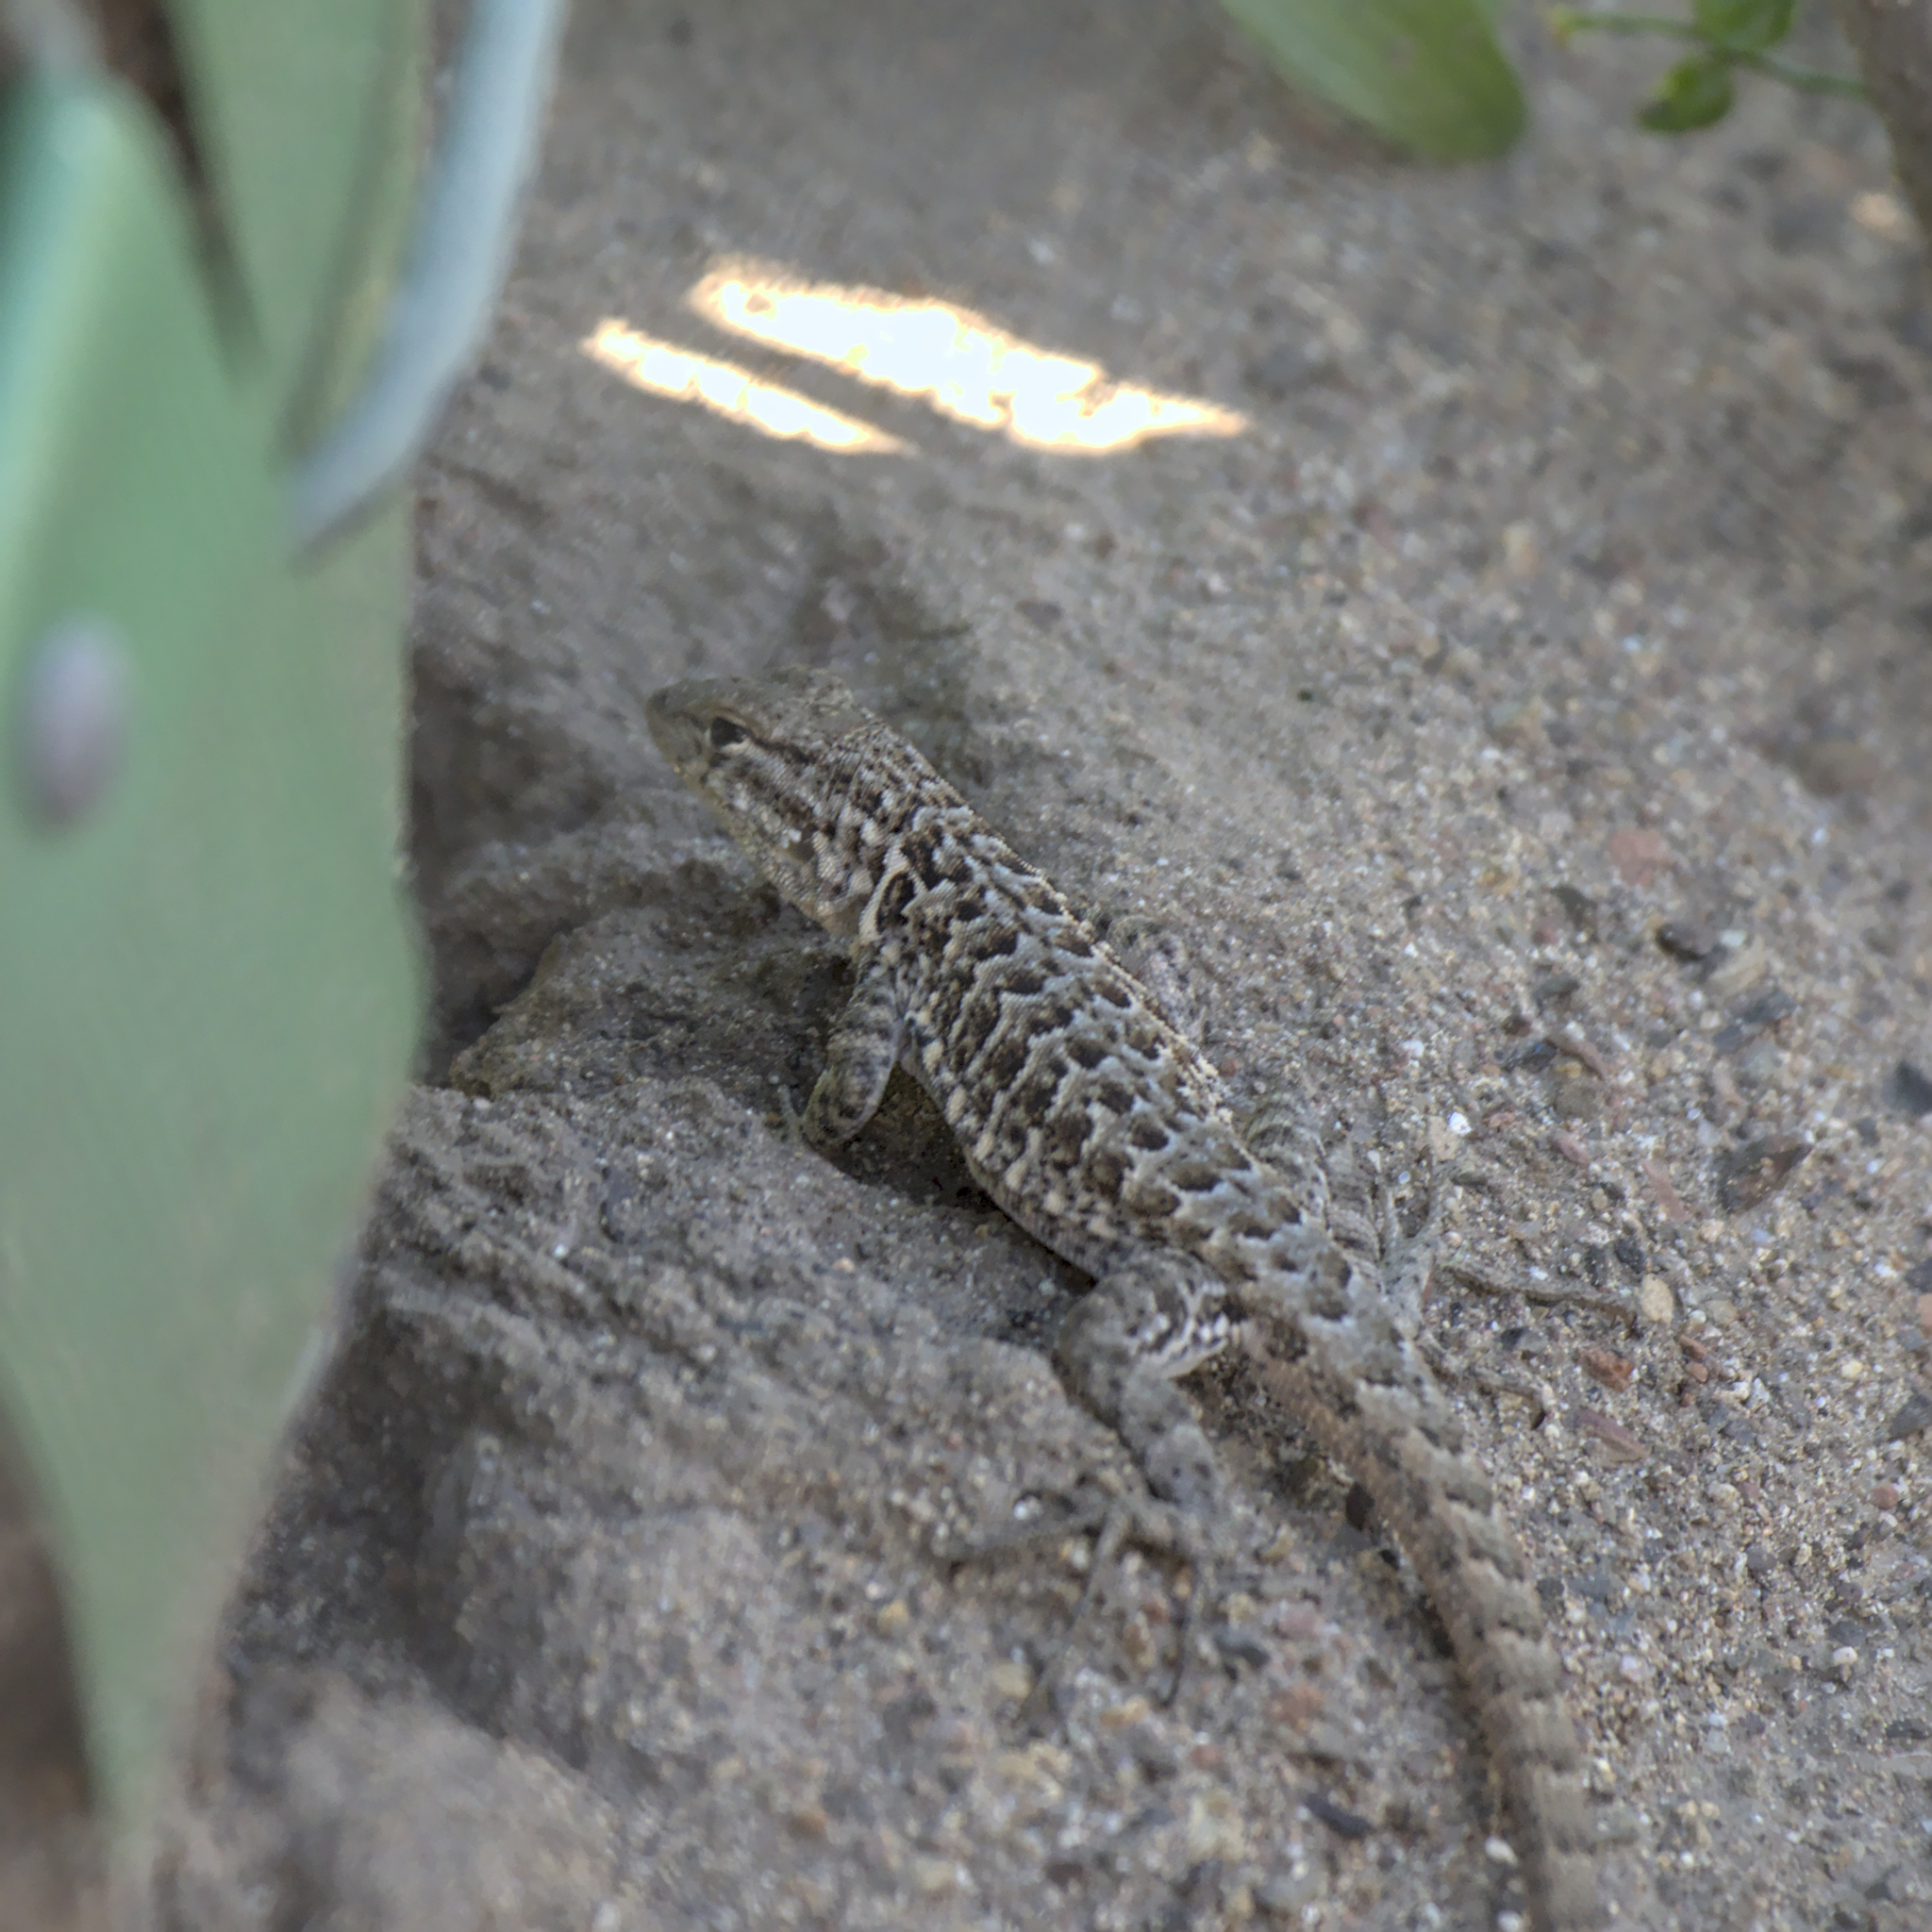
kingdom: Animalia
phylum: Chordata
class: Squamata
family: Phrynosomatidae
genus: Uta
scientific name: Uta stansburiana
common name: Side-blotched lizard
